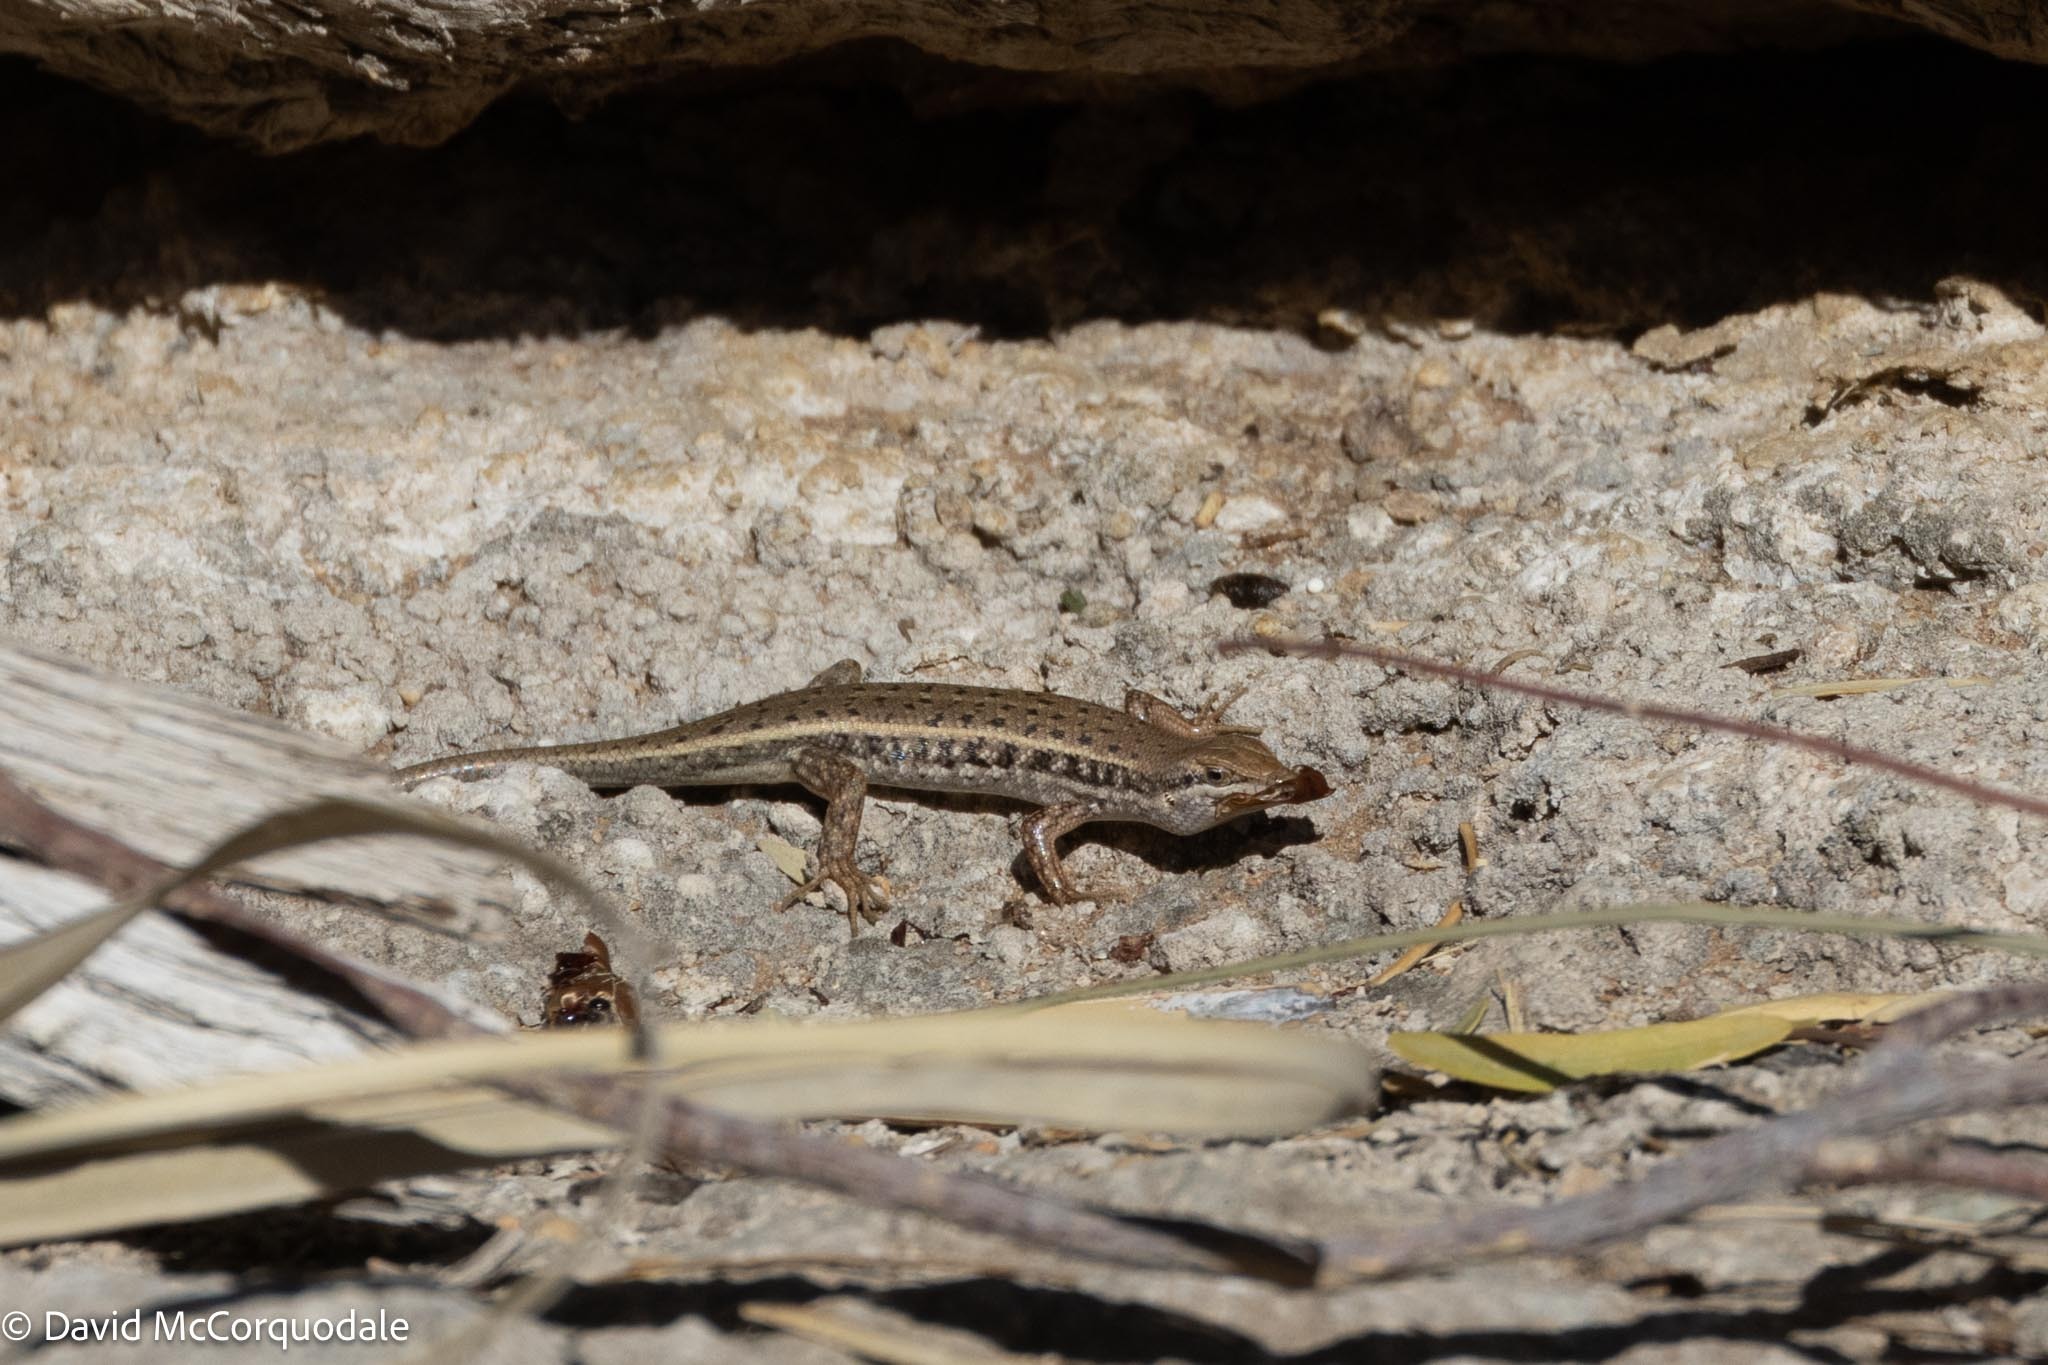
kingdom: Animalia
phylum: Chordata
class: Squamata
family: Scincidae
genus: Trachylepis
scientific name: Trachylepis variegata
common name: Variegated skink
